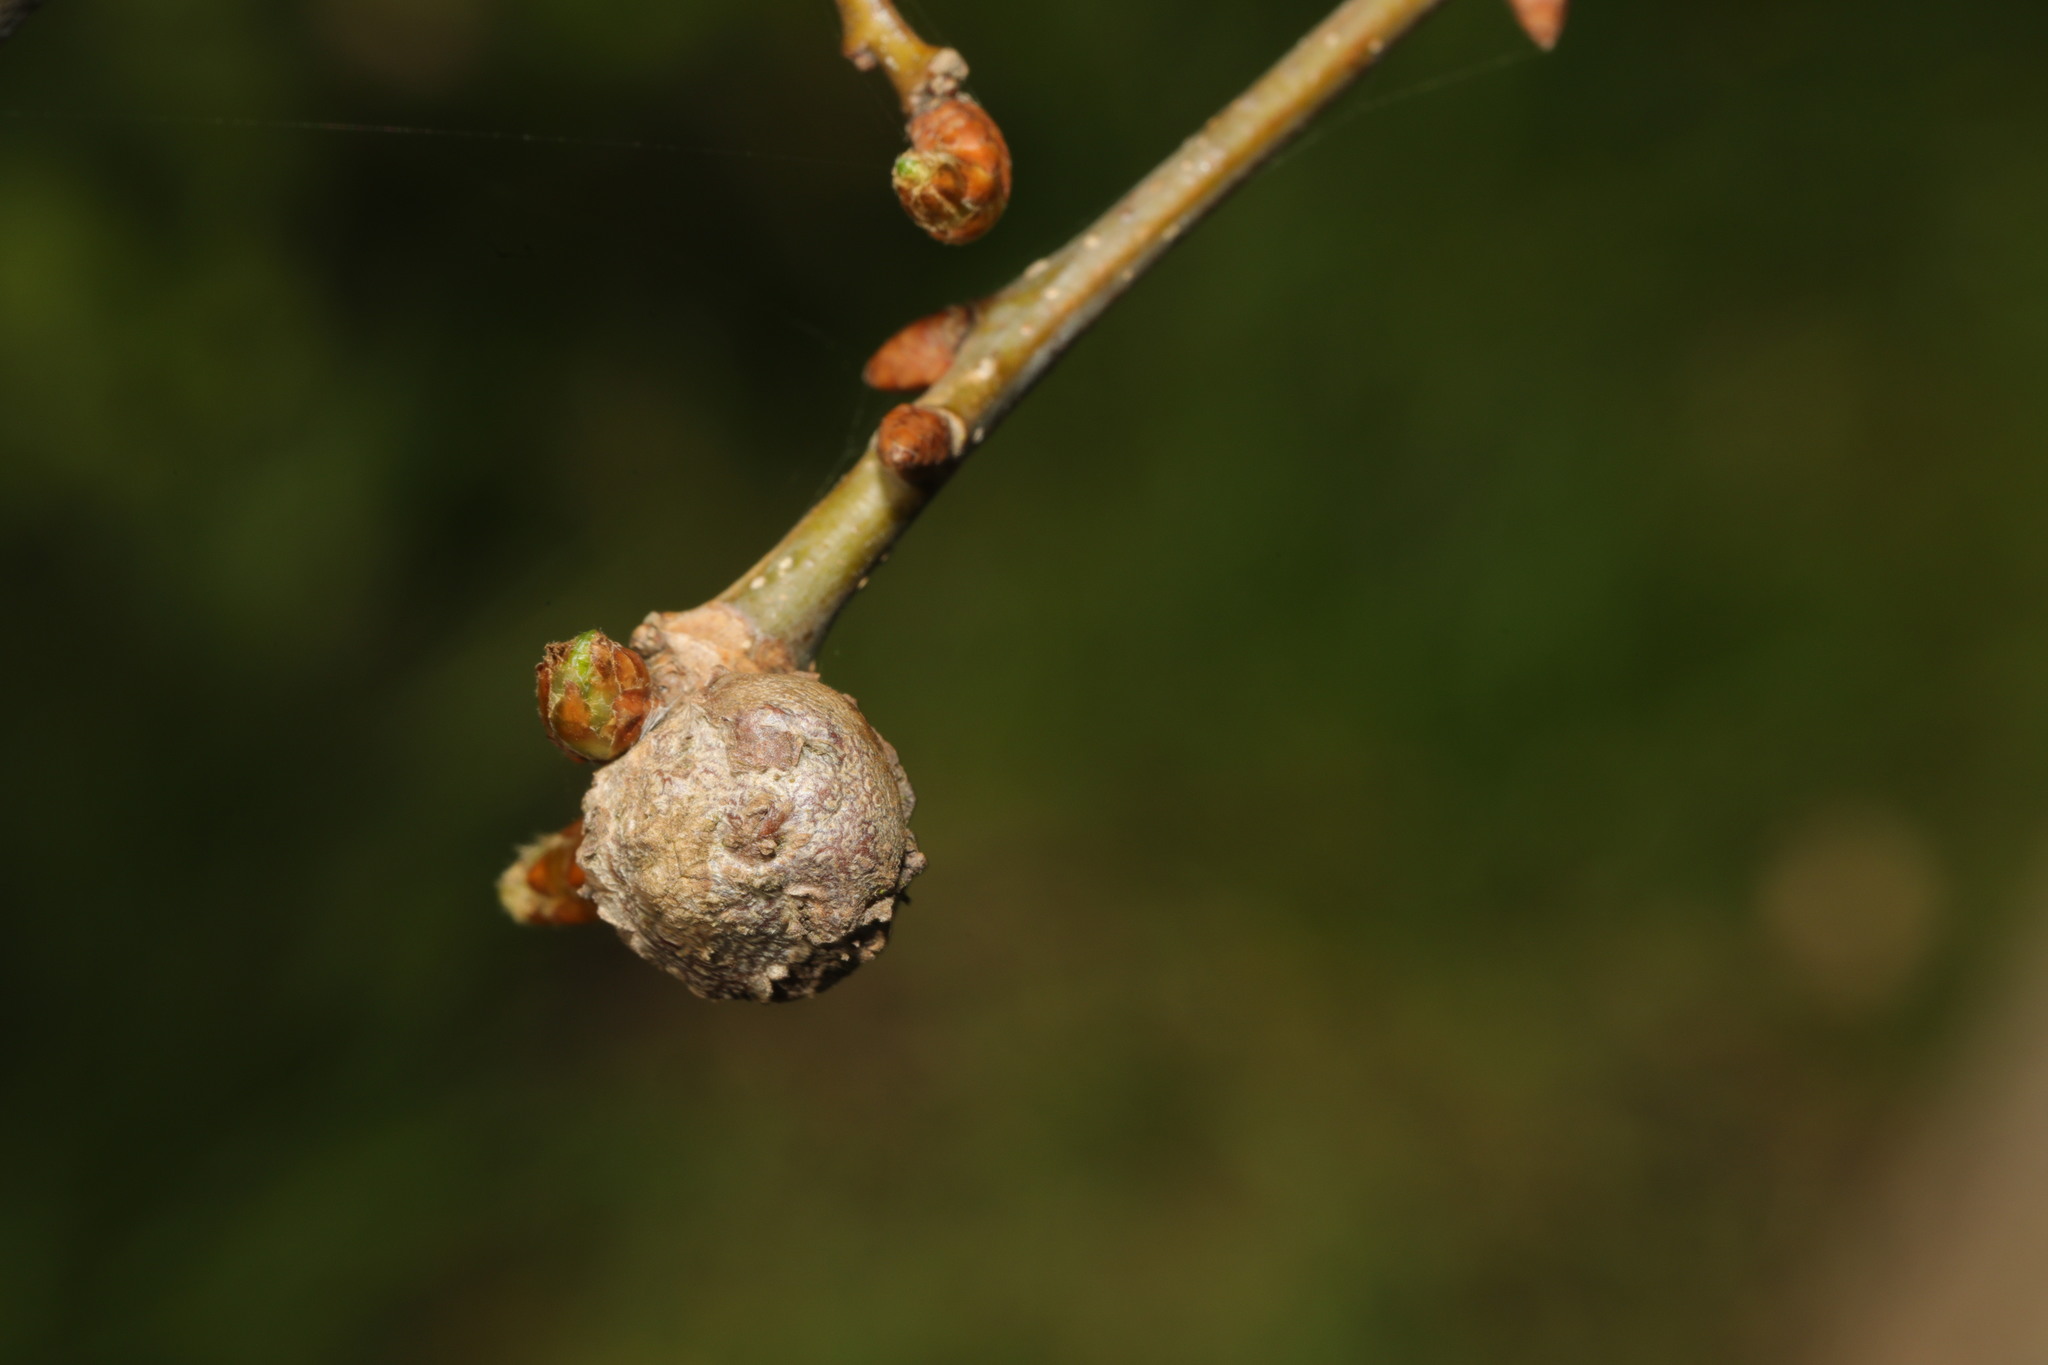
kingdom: Animalia
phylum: Arthropoda
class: Insecta
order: Hymenoptera
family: Cynipidae
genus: Andricus
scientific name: Andricus lignicolus
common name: Cola-nut gall
